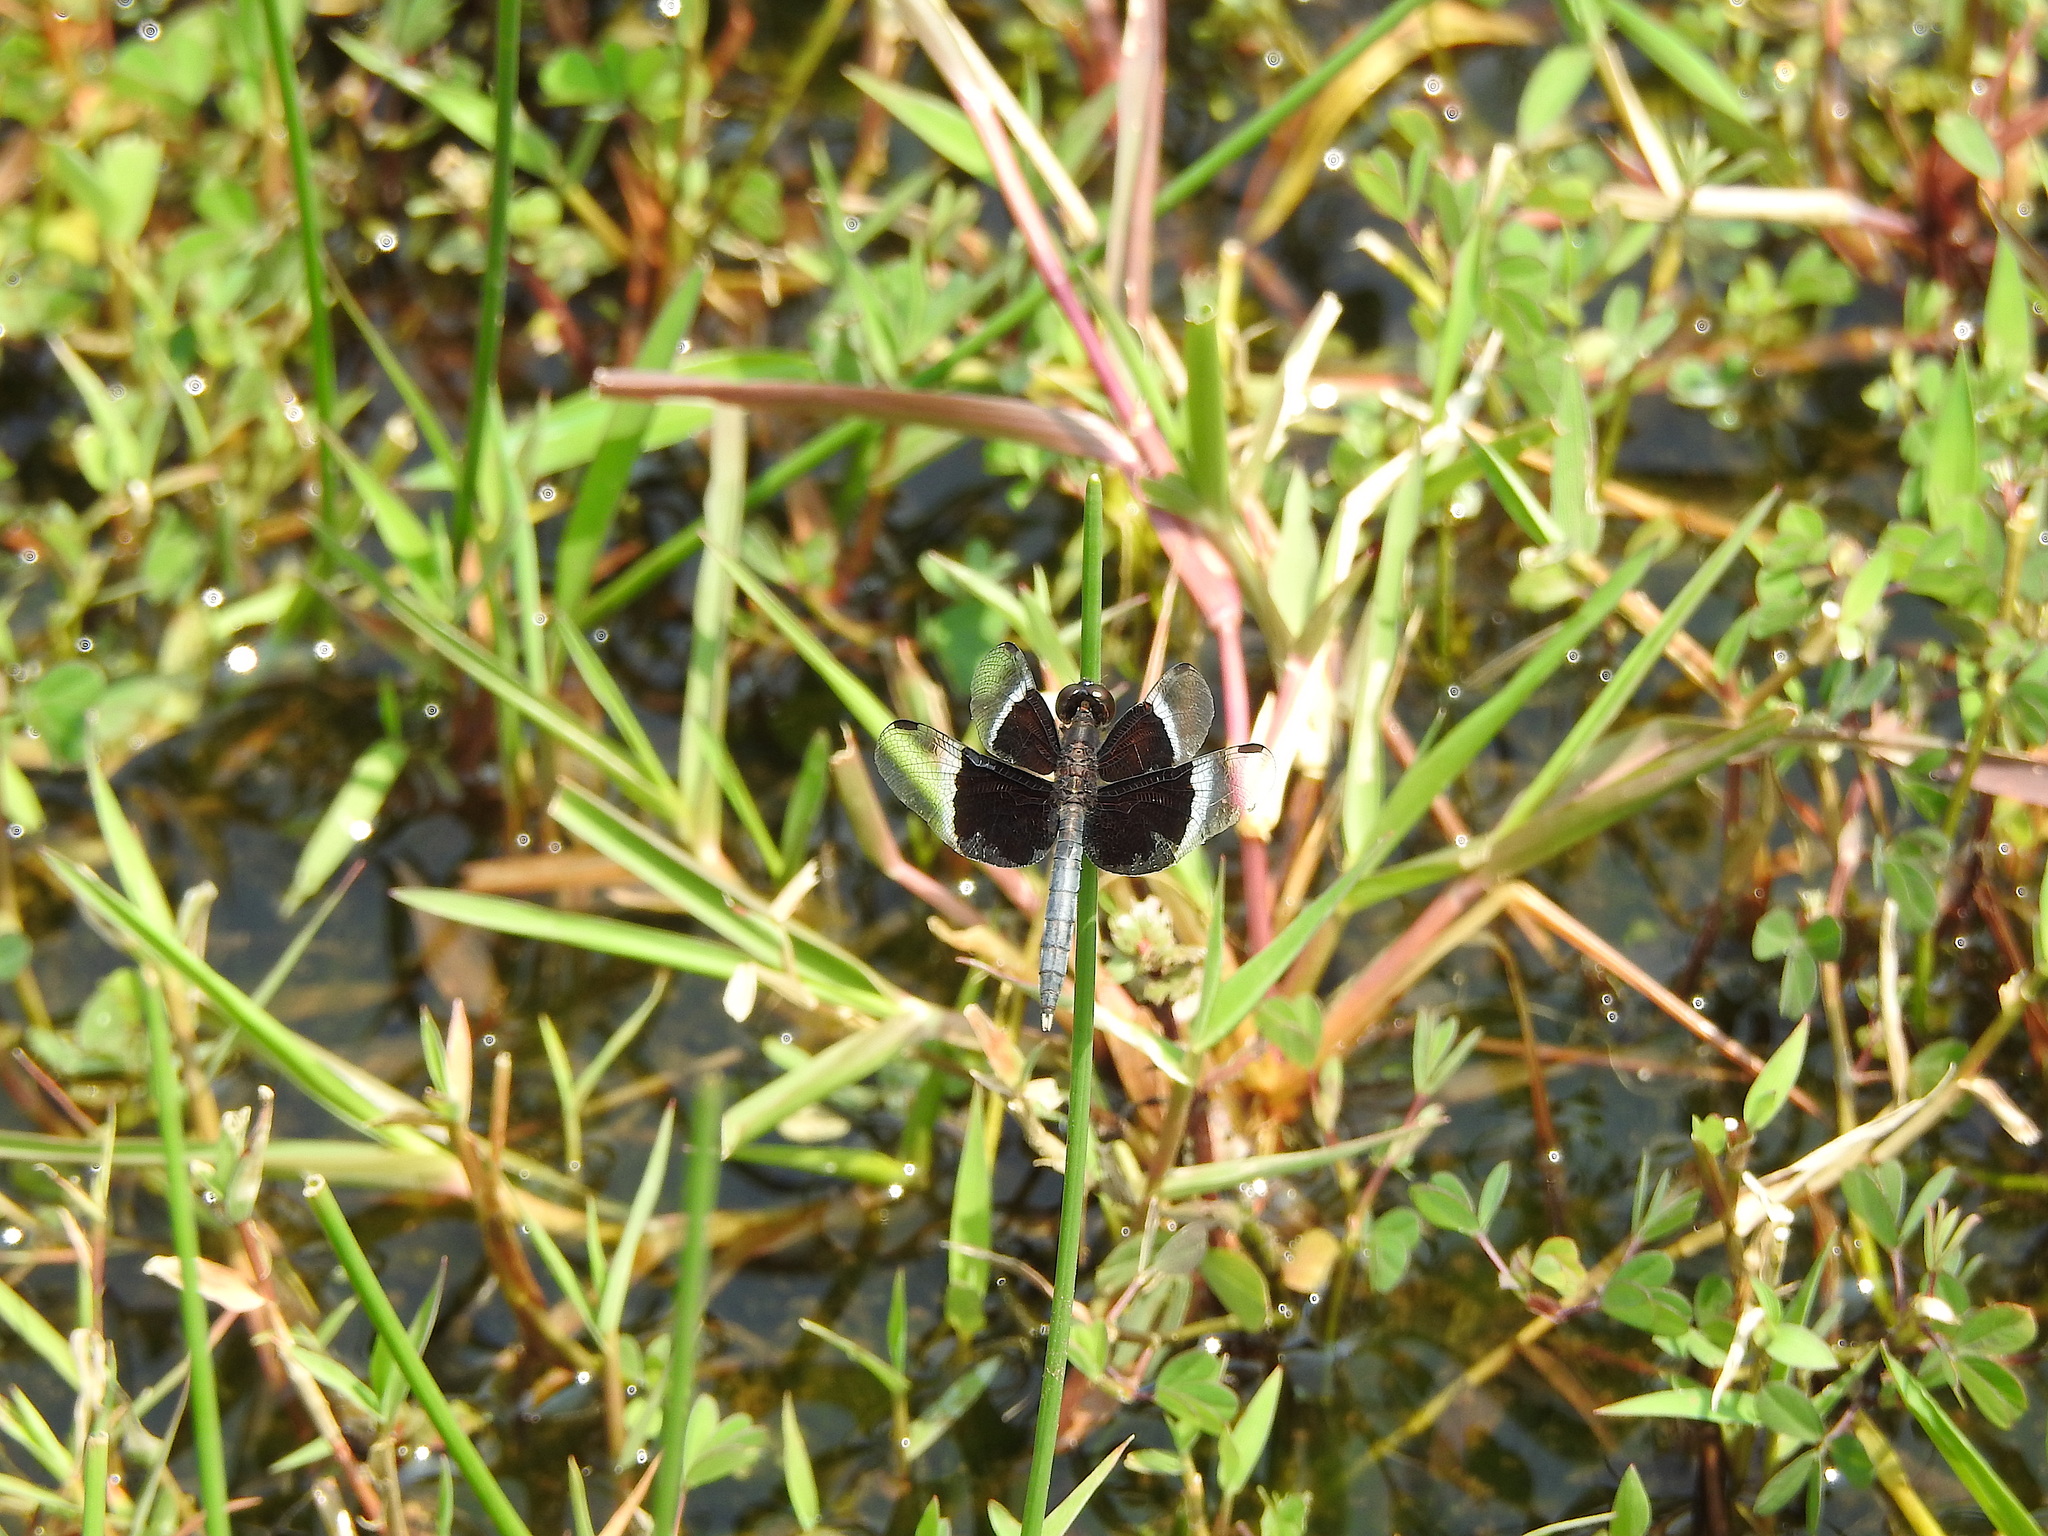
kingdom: Animalia
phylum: Arthropoda
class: Insecta
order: Odonata
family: Libellulidae
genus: Neurothemis
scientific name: Neurothemis tullia
